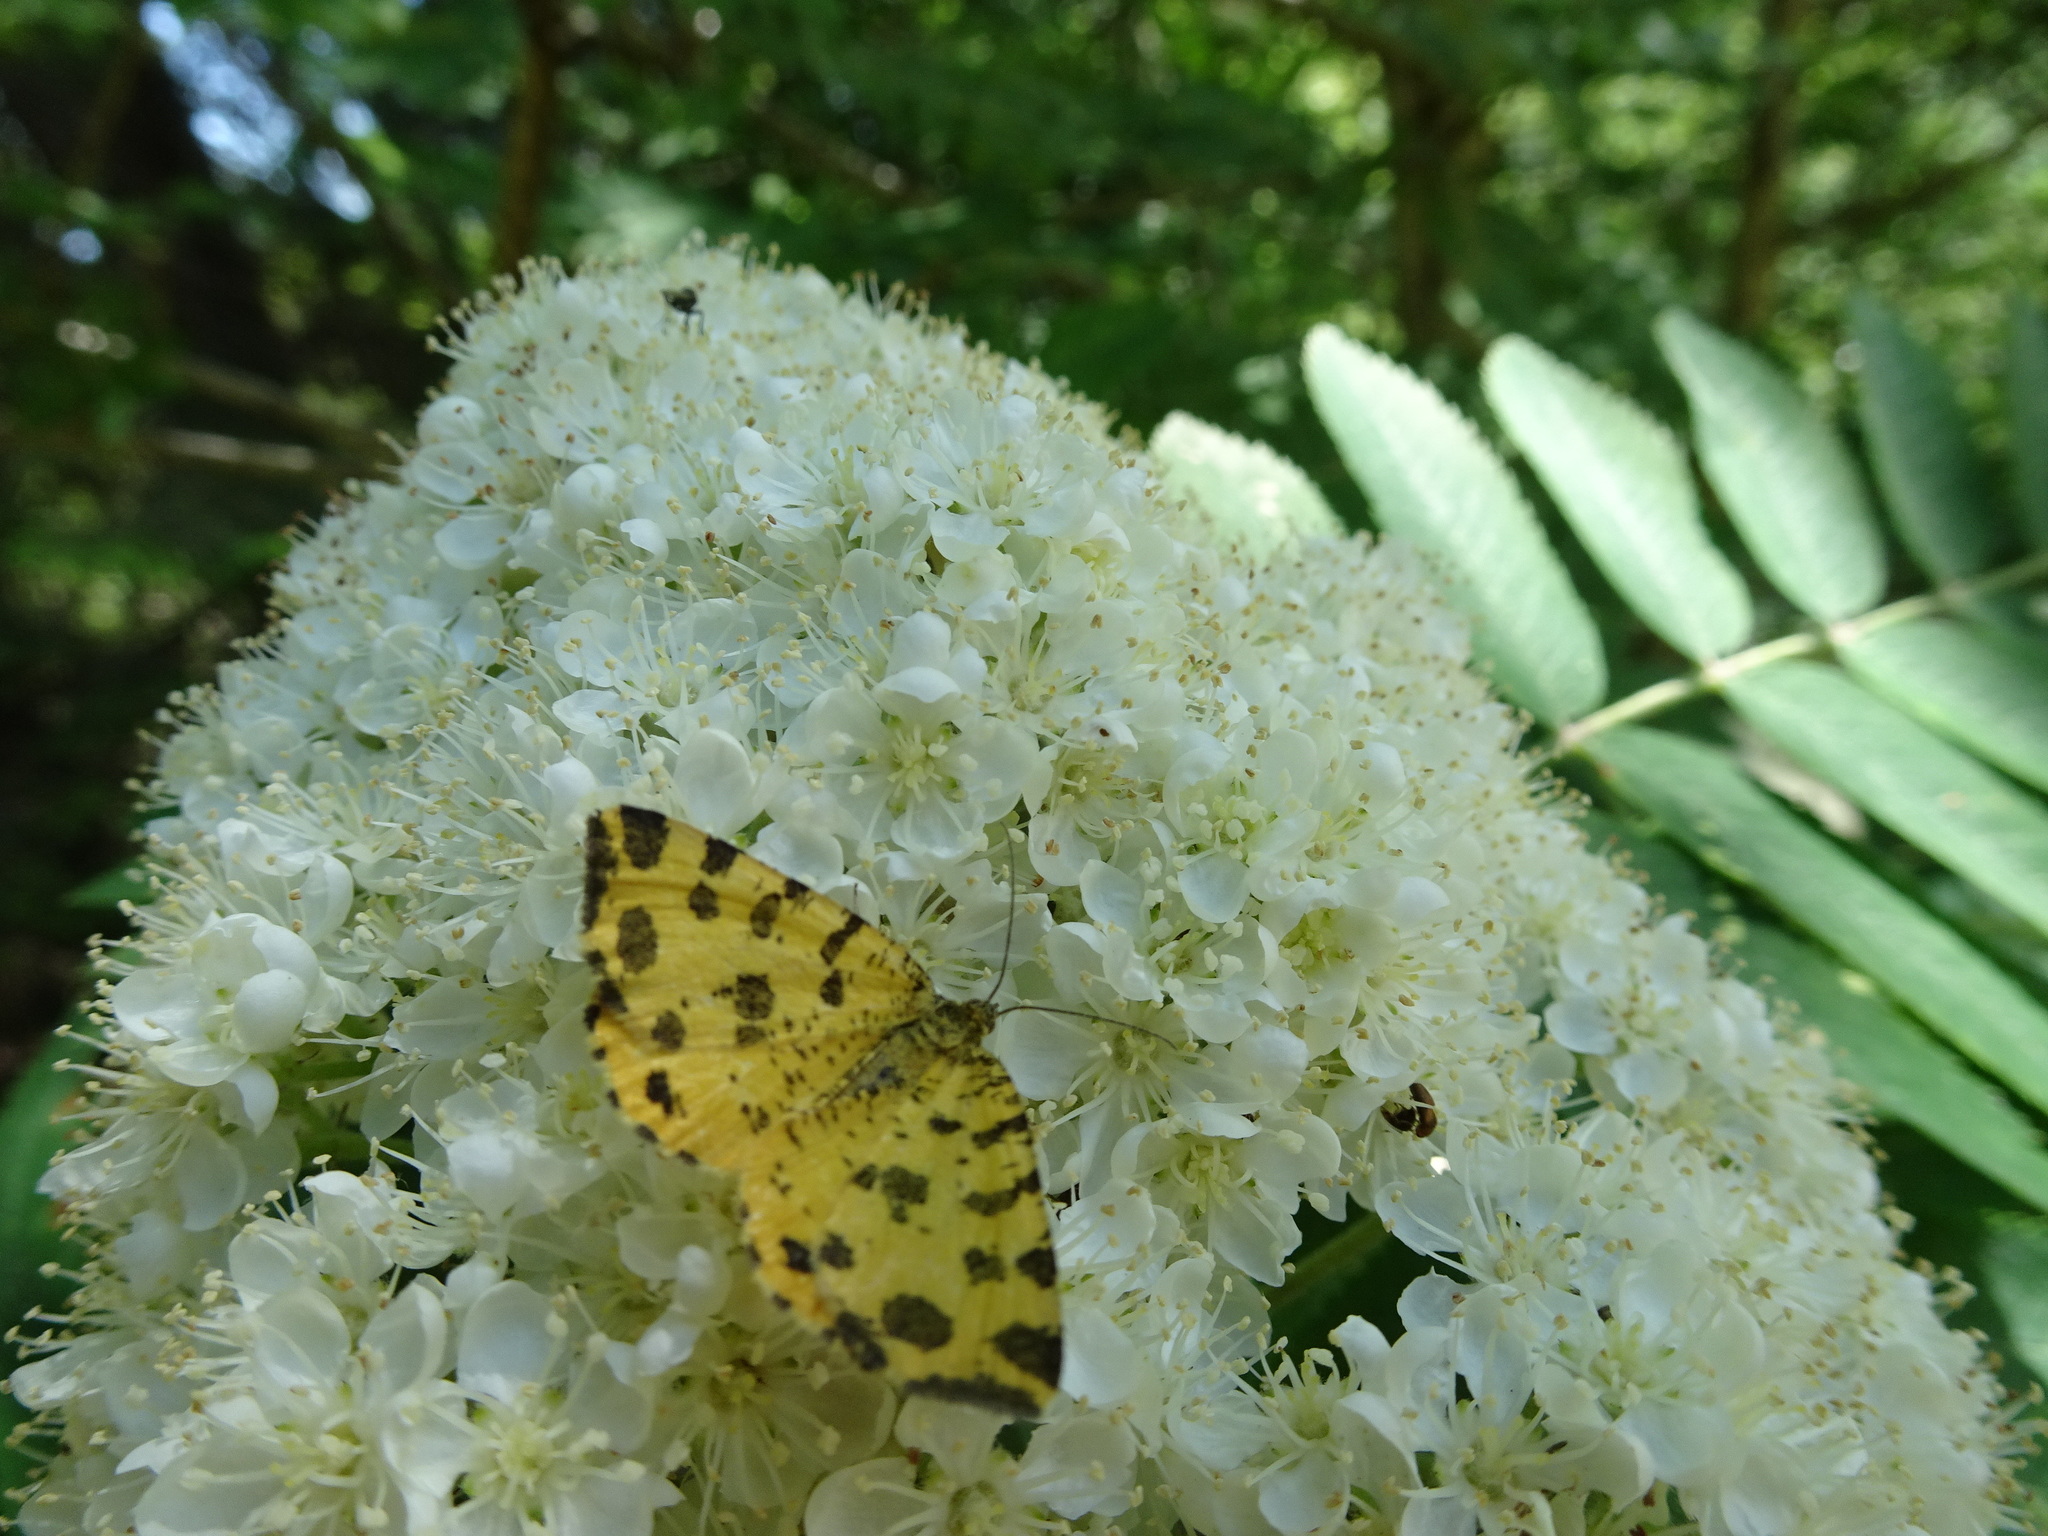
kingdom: Animalia
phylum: Arthropoda
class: Insecta
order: Lepidoptera
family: Geometridae
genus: Pseudopanthera
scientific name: Pseudopanthera macularia
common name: Speckled yellow
